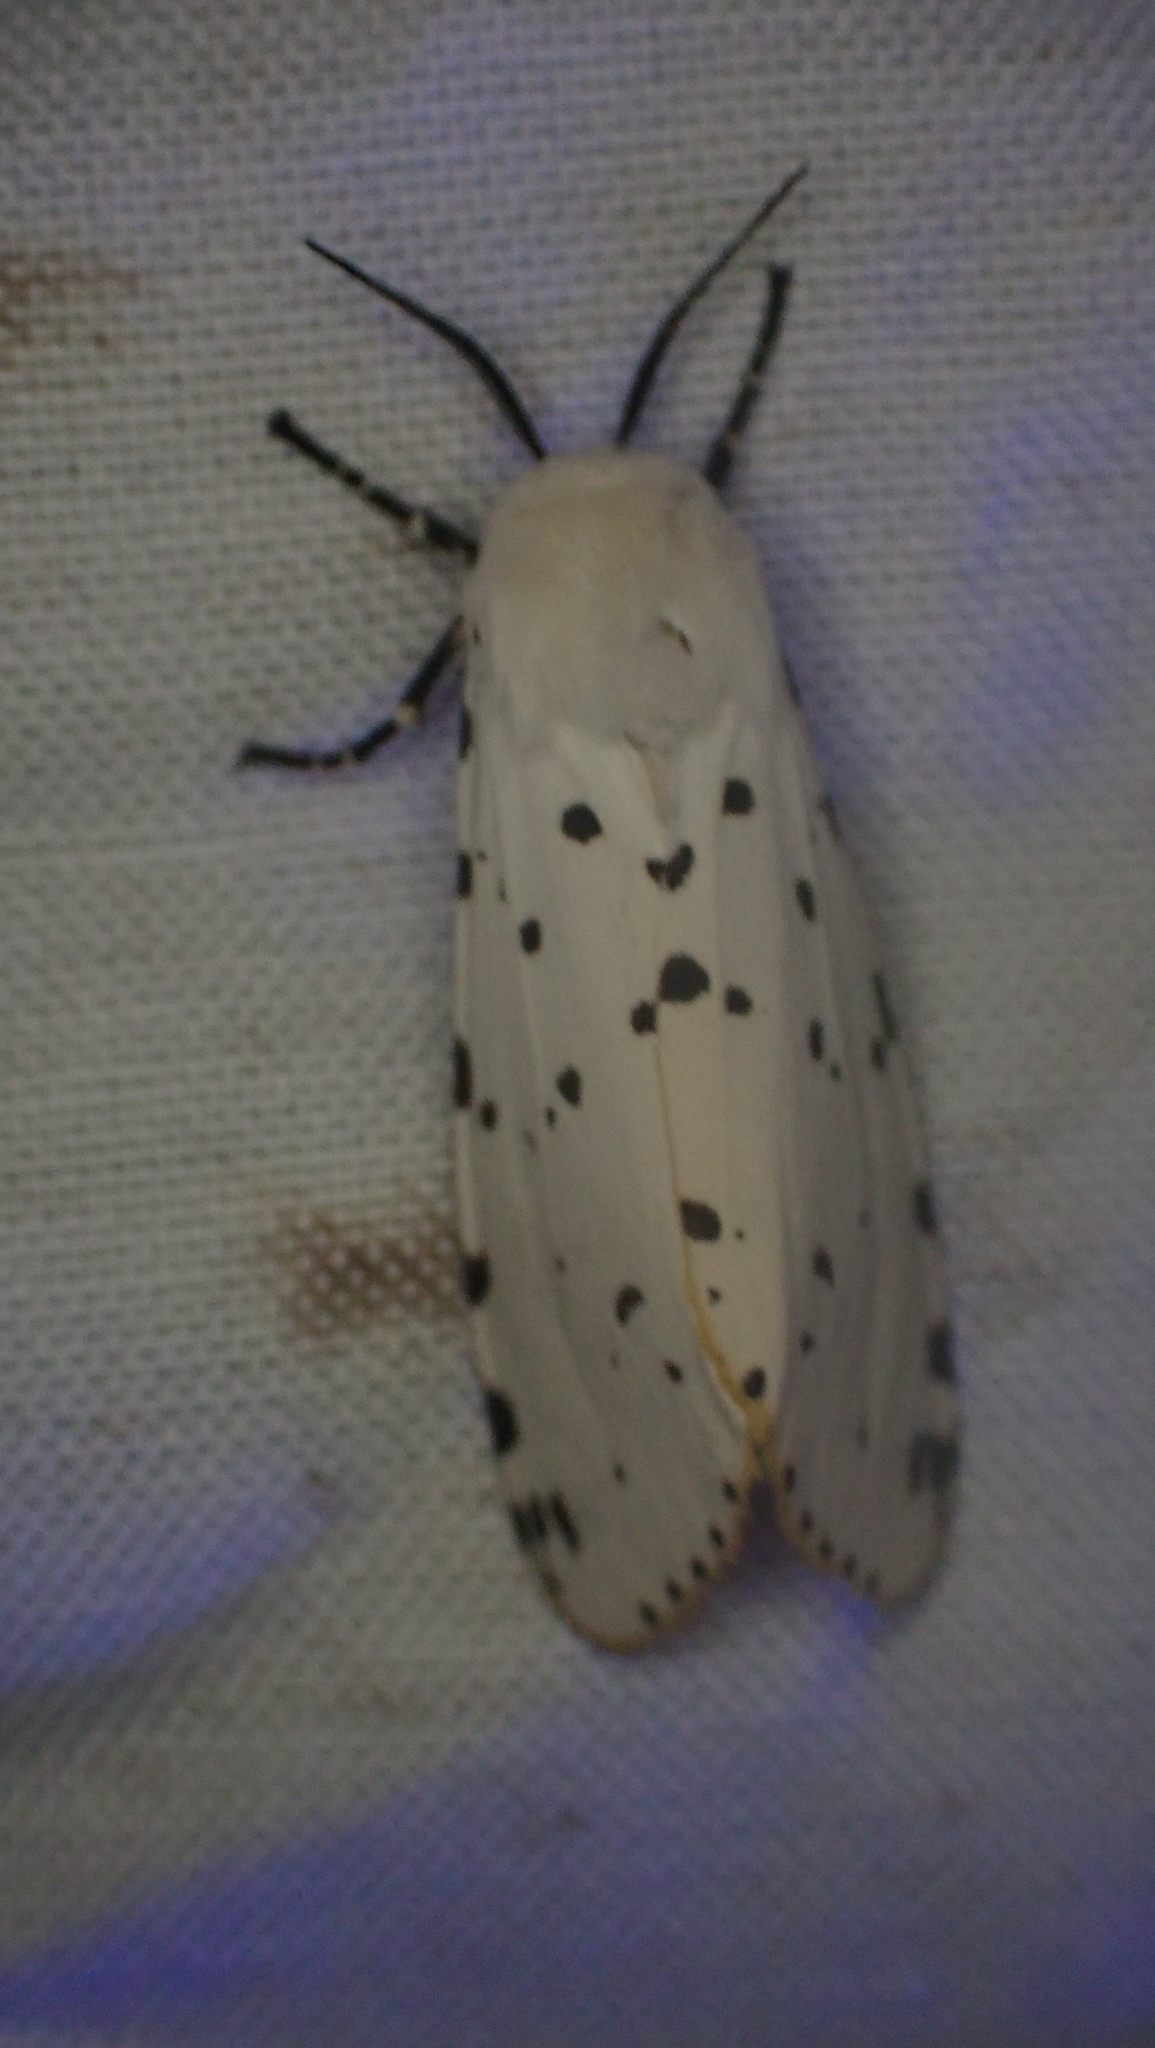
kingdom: Animalia
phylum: Arthropoda
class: Insecta
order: Lepidoptera
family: Erebidae
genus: Estigmene
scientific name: Estigmene acrea
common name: Salt marsh moth
